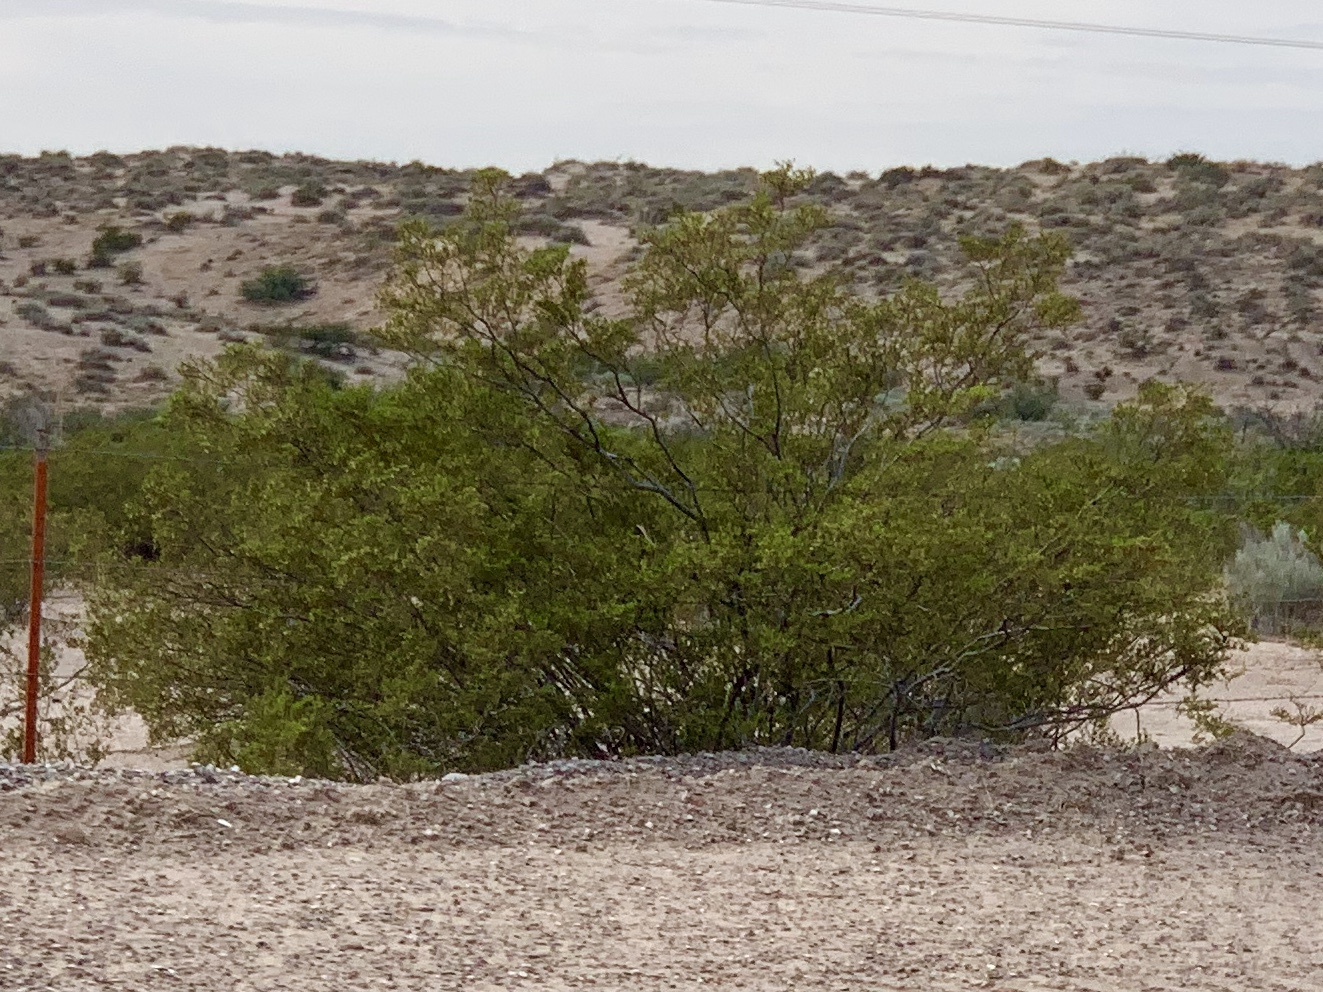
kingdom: Plantae
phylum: Tracheophyta
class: Magnoliopsida
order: Zygophyllales
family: Zygophyllaceae
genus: Larrea
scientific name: Larrea tridentata
